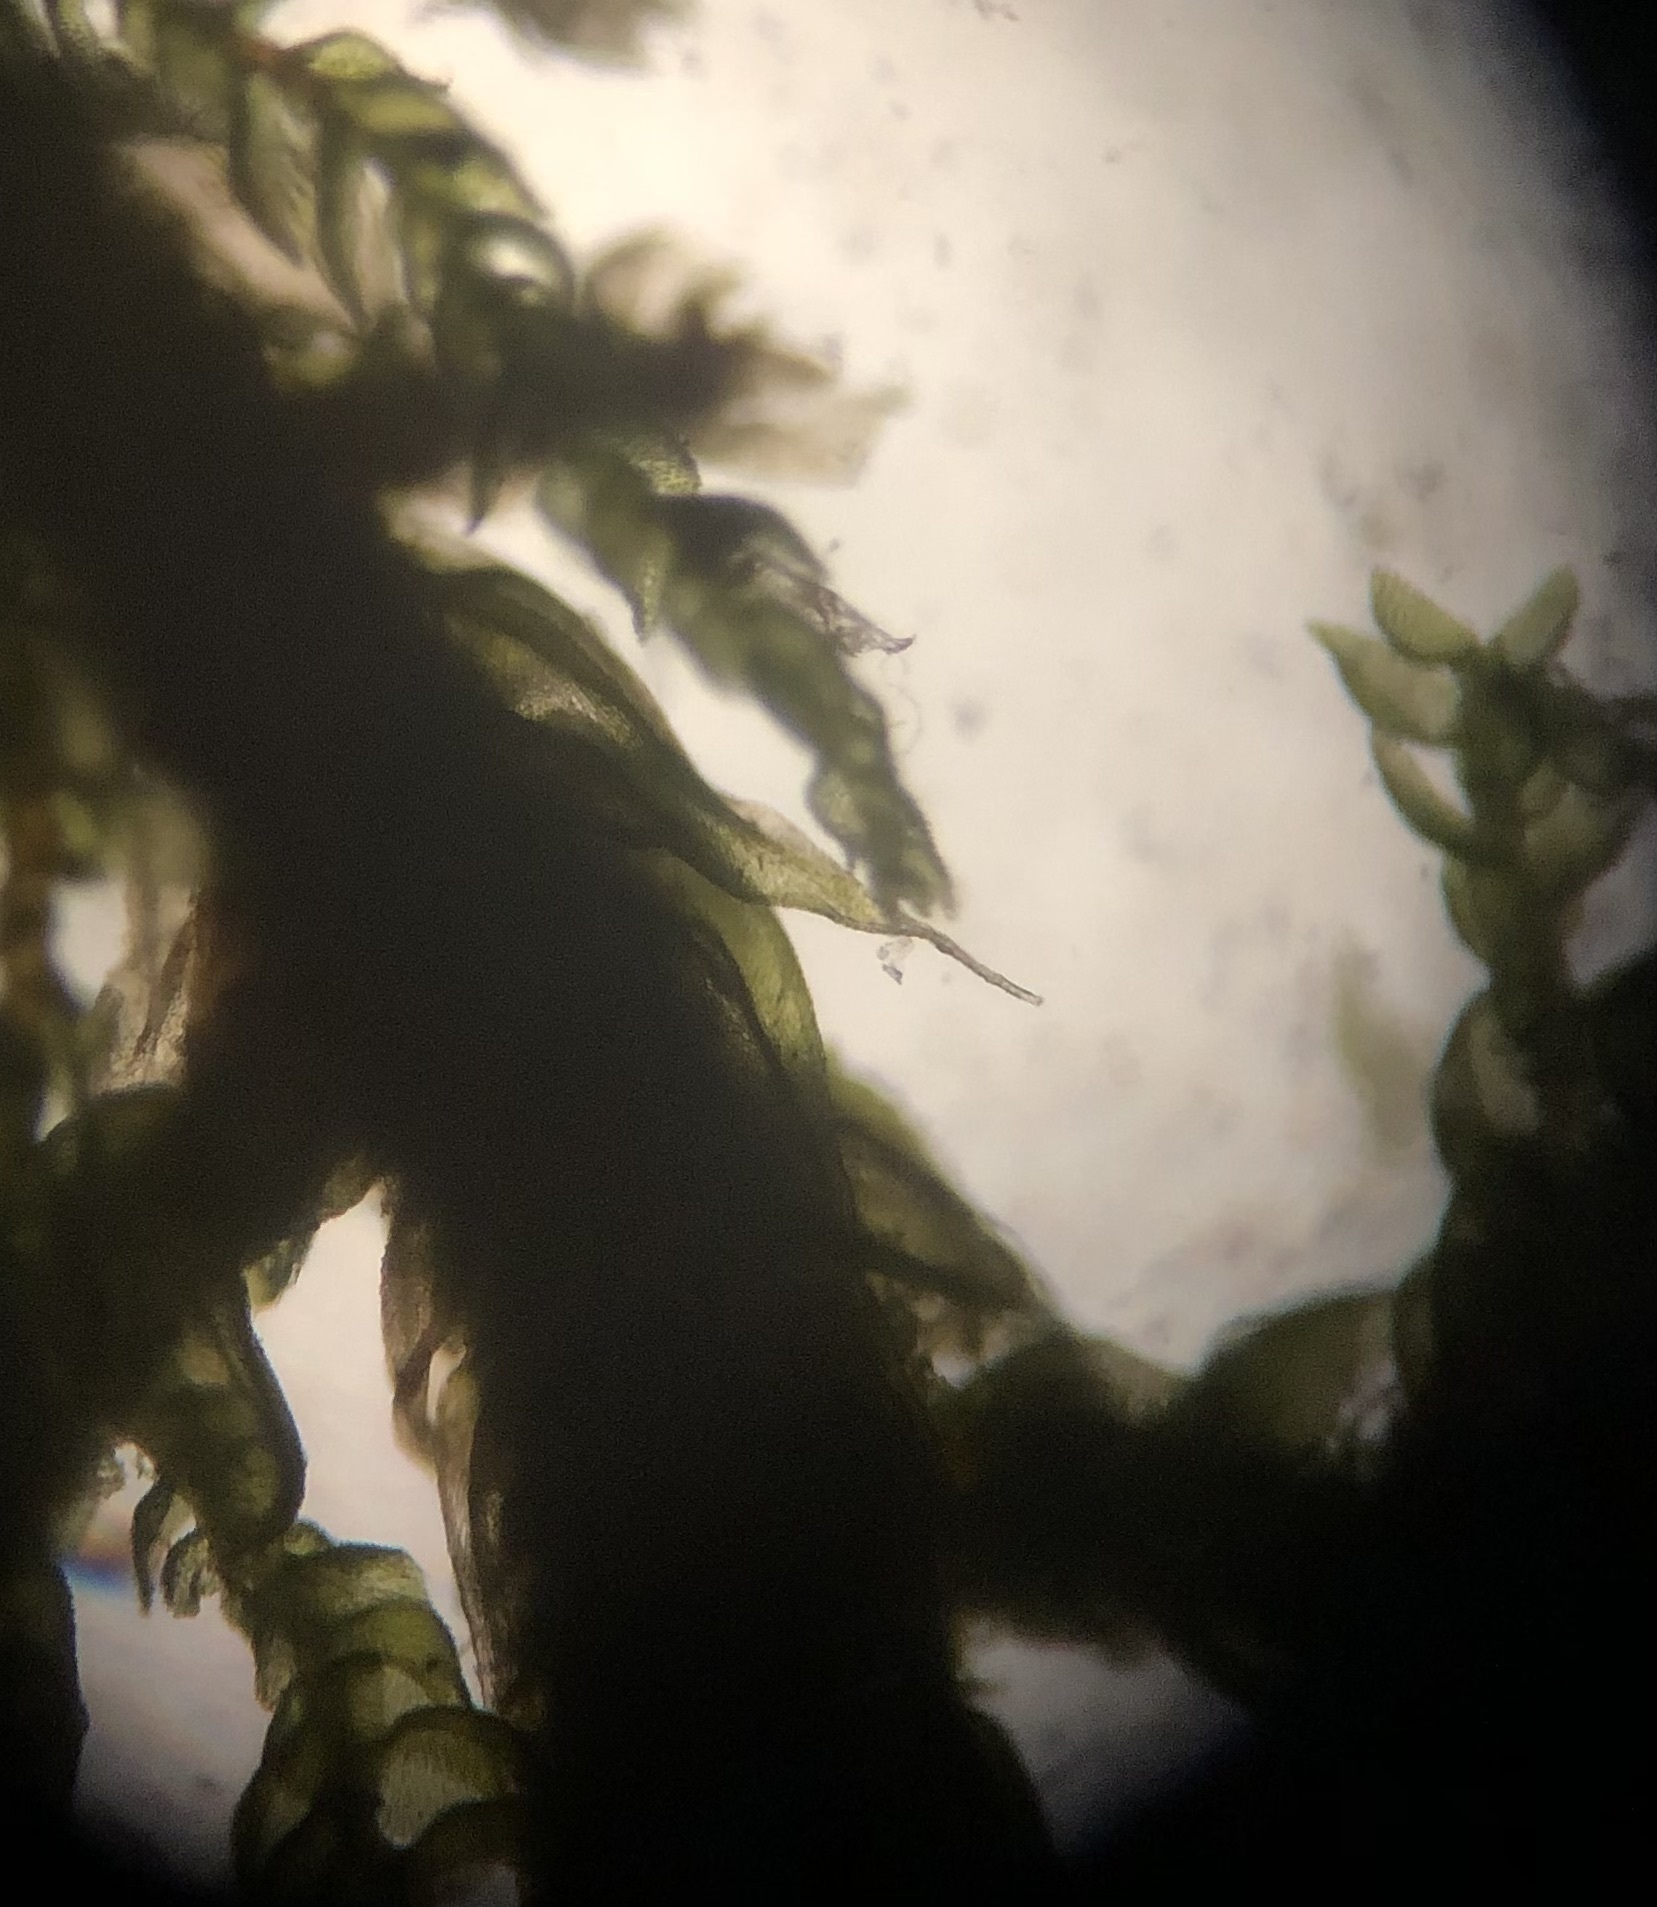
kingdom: Plantae
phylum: Bryophyta
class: Bryopsida
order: Hypnales
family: Thuidiaceae
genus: Thuidium
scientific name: Thuidium assimile
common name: Philibert's fern moss
